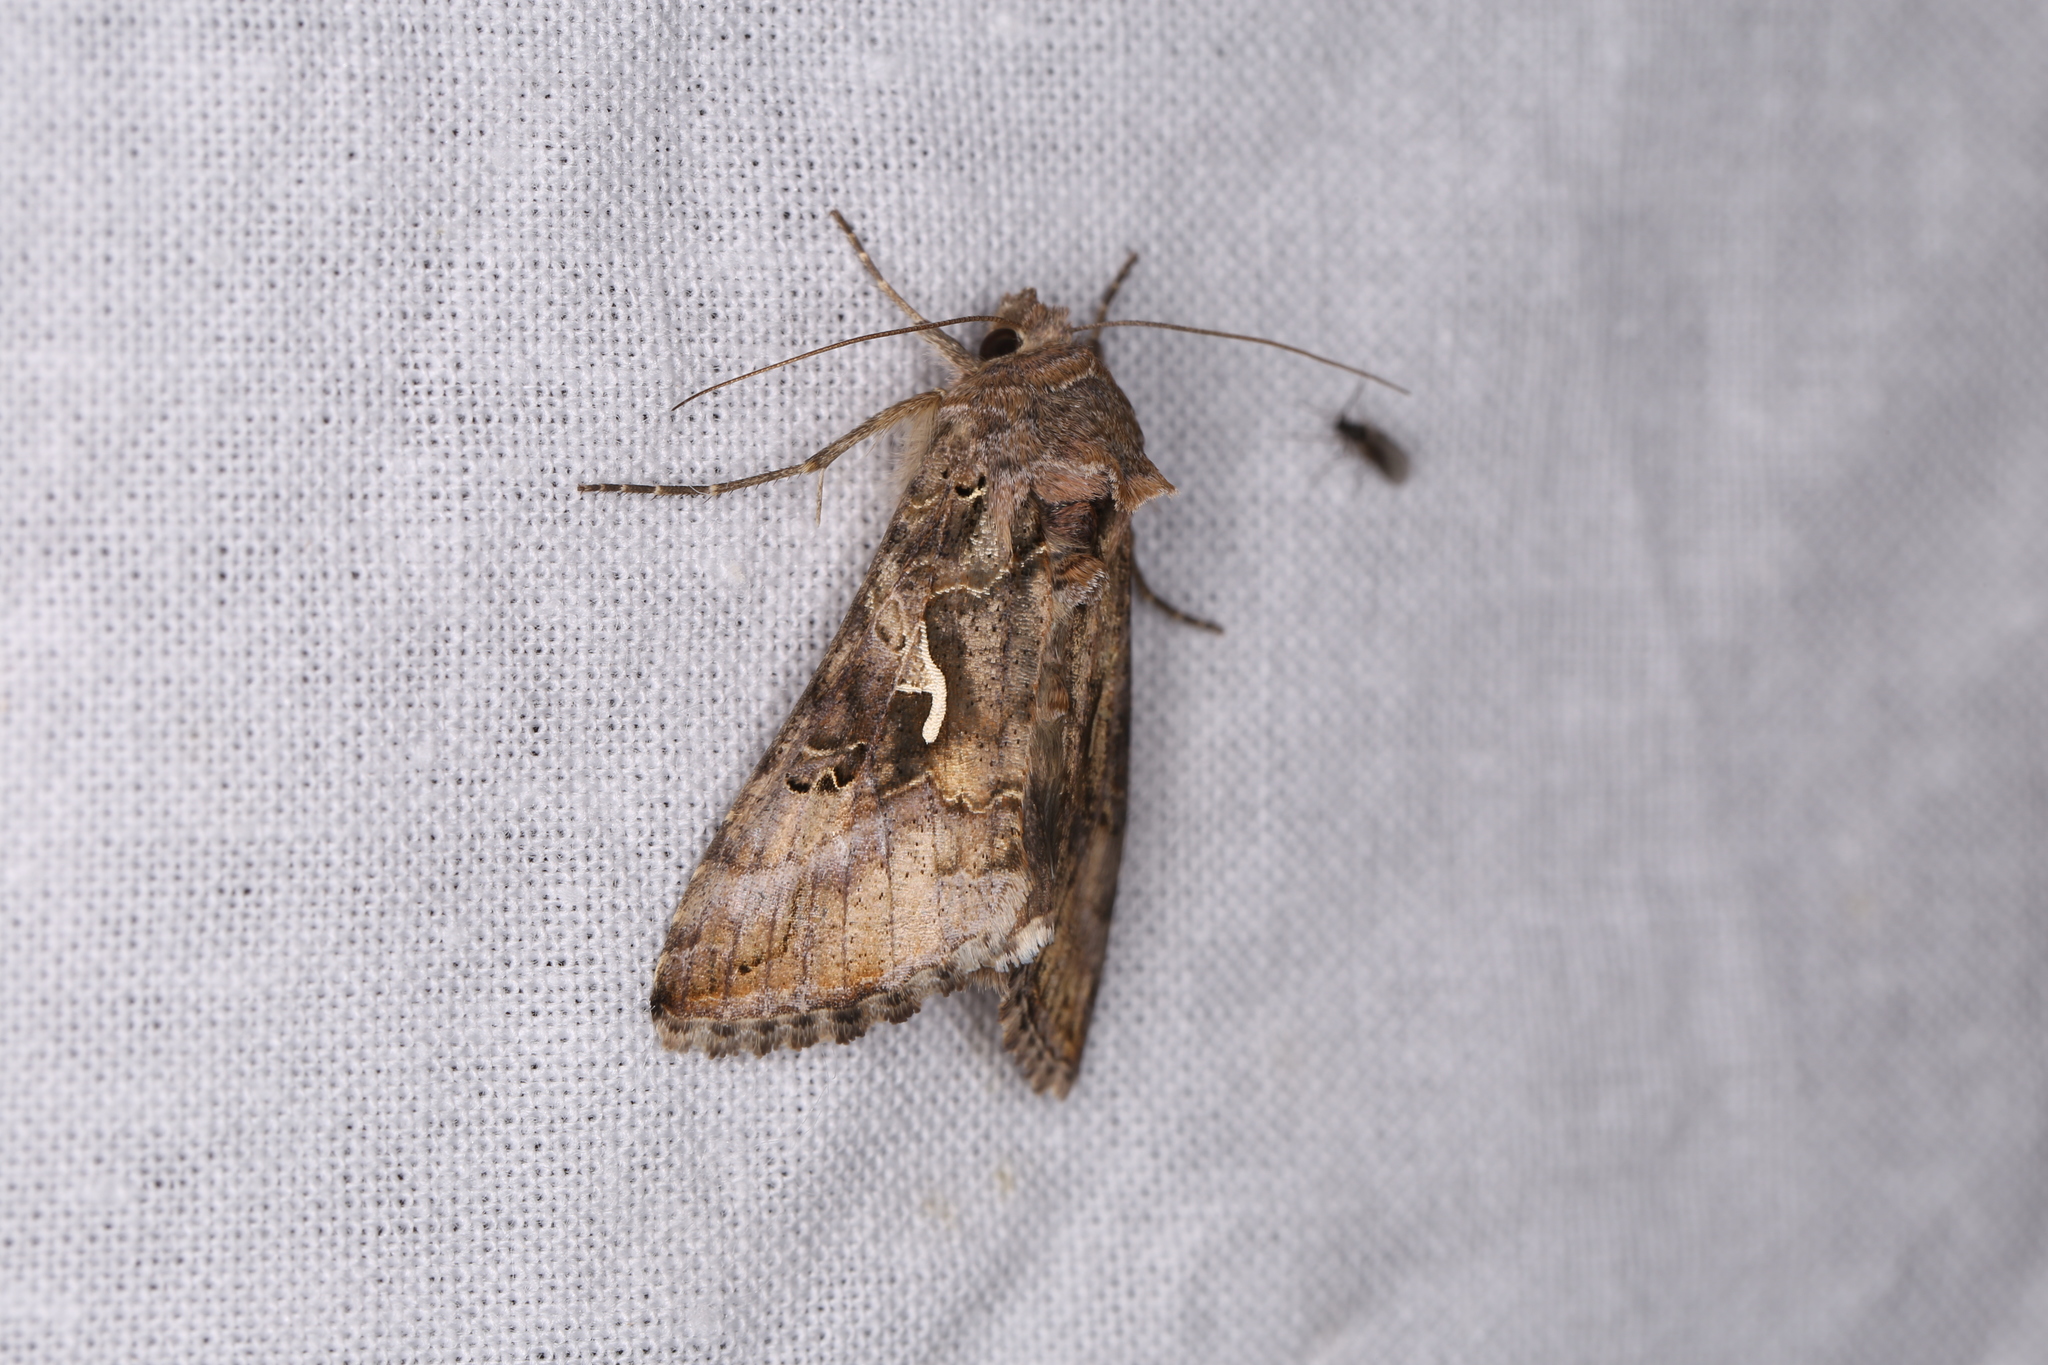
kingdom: Animalia
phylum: Arthropoda
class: Insecta
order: Lepidoptera
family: Noctuidae
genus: Autographa
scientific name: Autographa gamma
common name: Silver y
